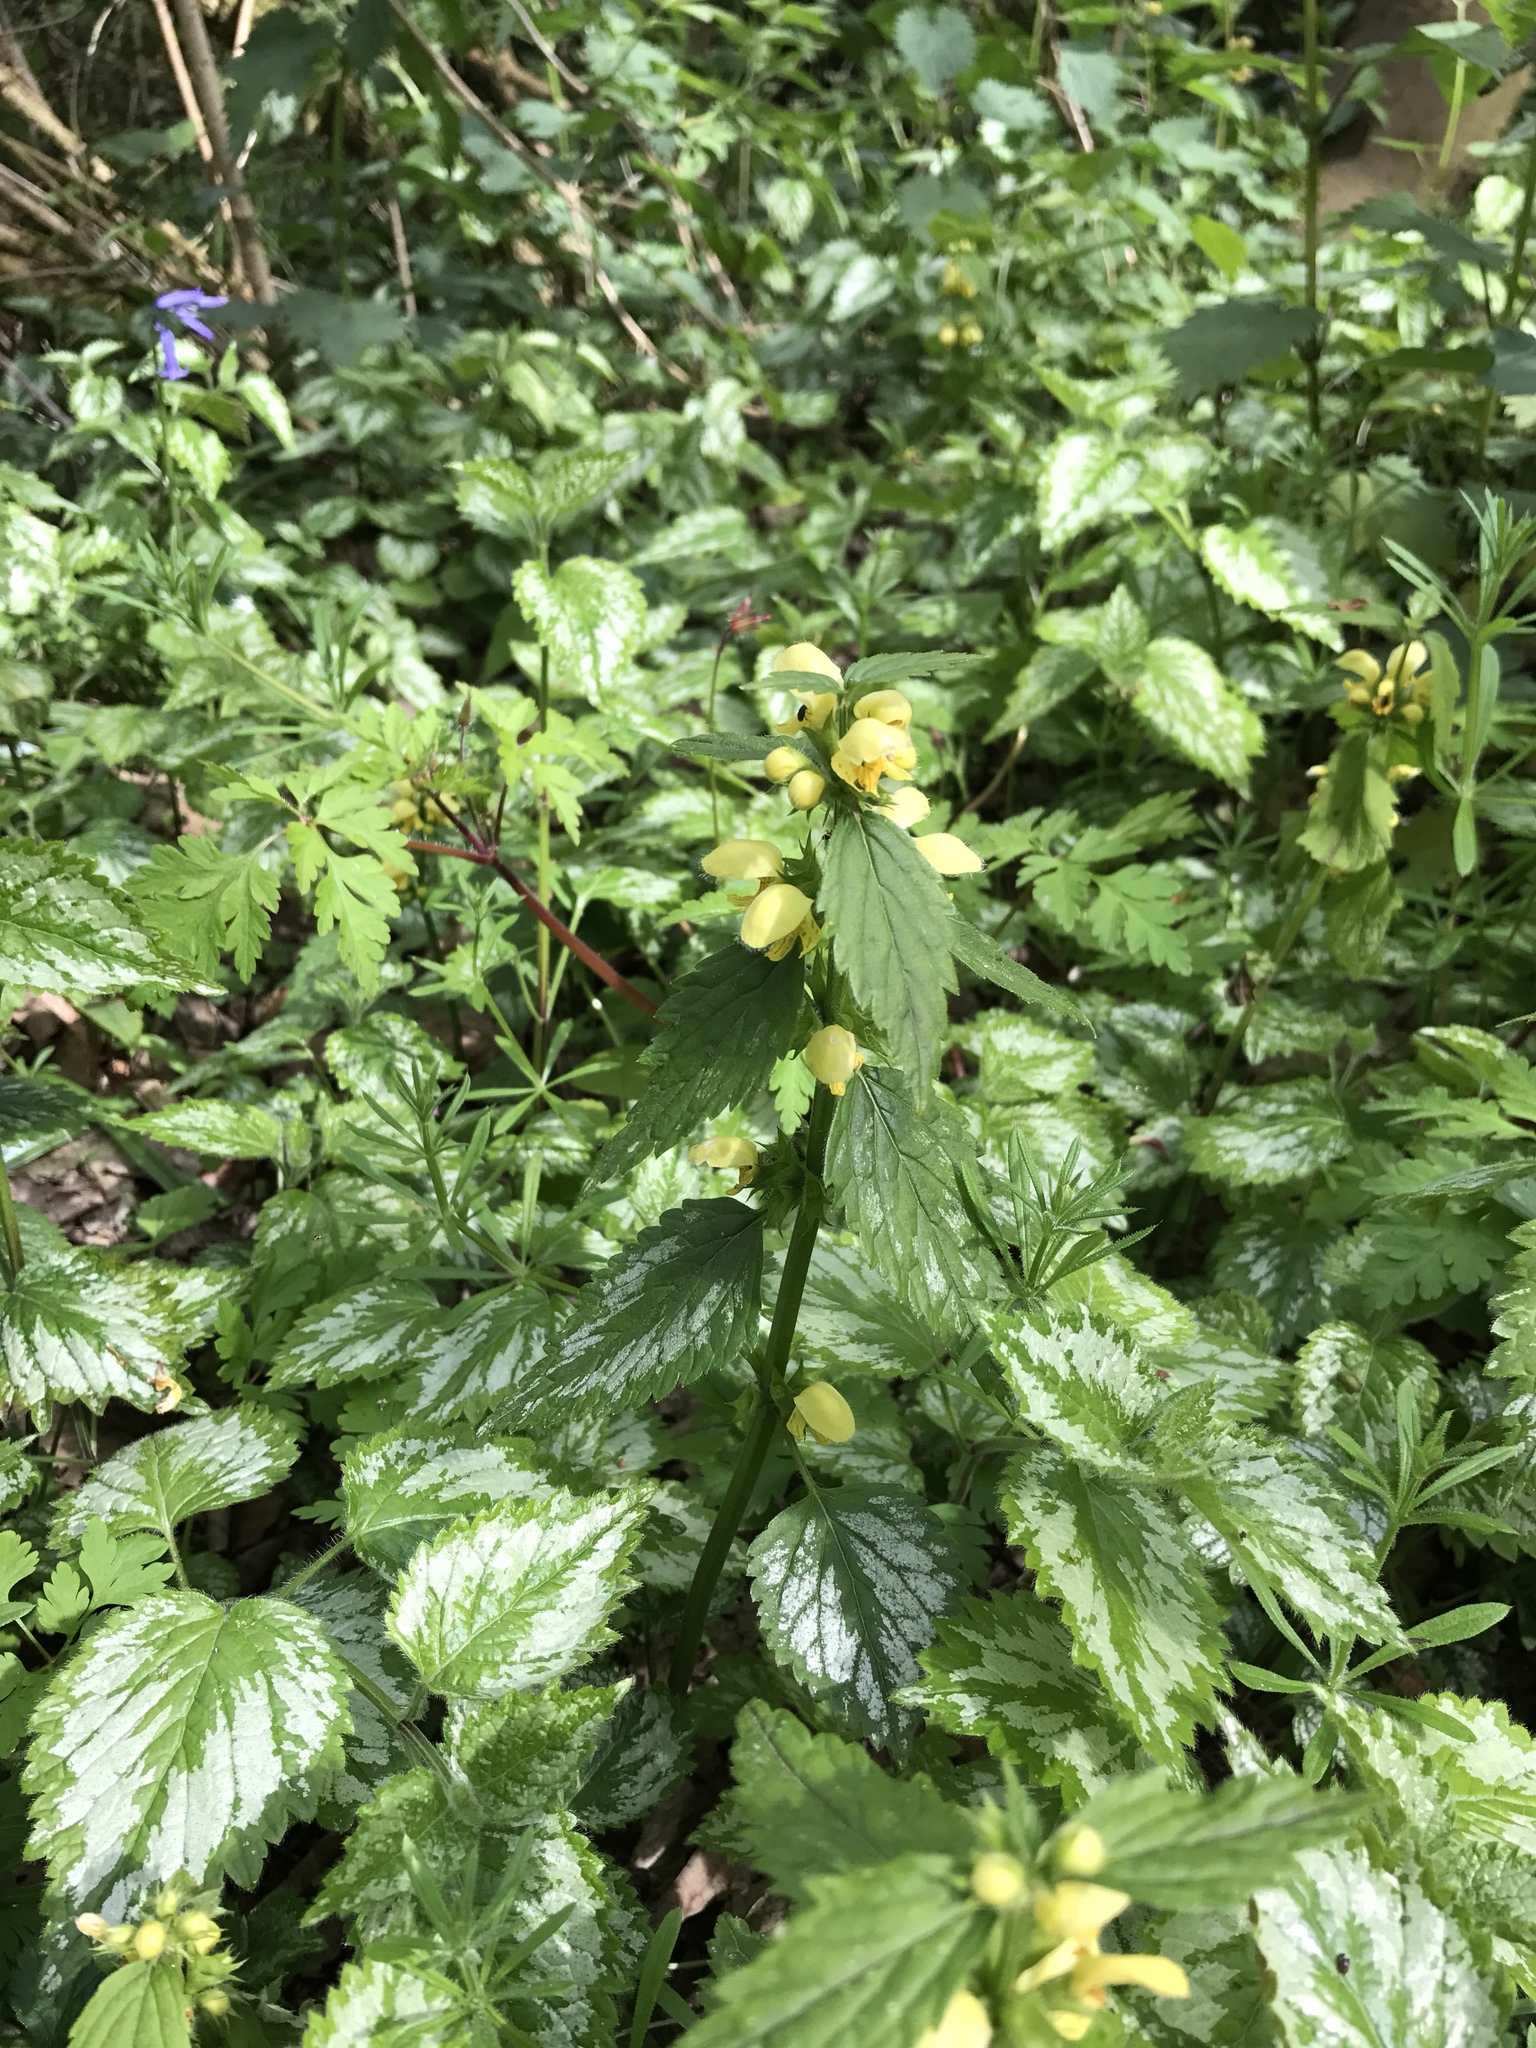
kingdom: Plantae
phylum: Tracheophyta
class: Magnoliopsida
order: Lamiales
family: Lamiaceae
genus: Lamium
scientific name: Lamium galeobdolon
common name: Yellow archangel
